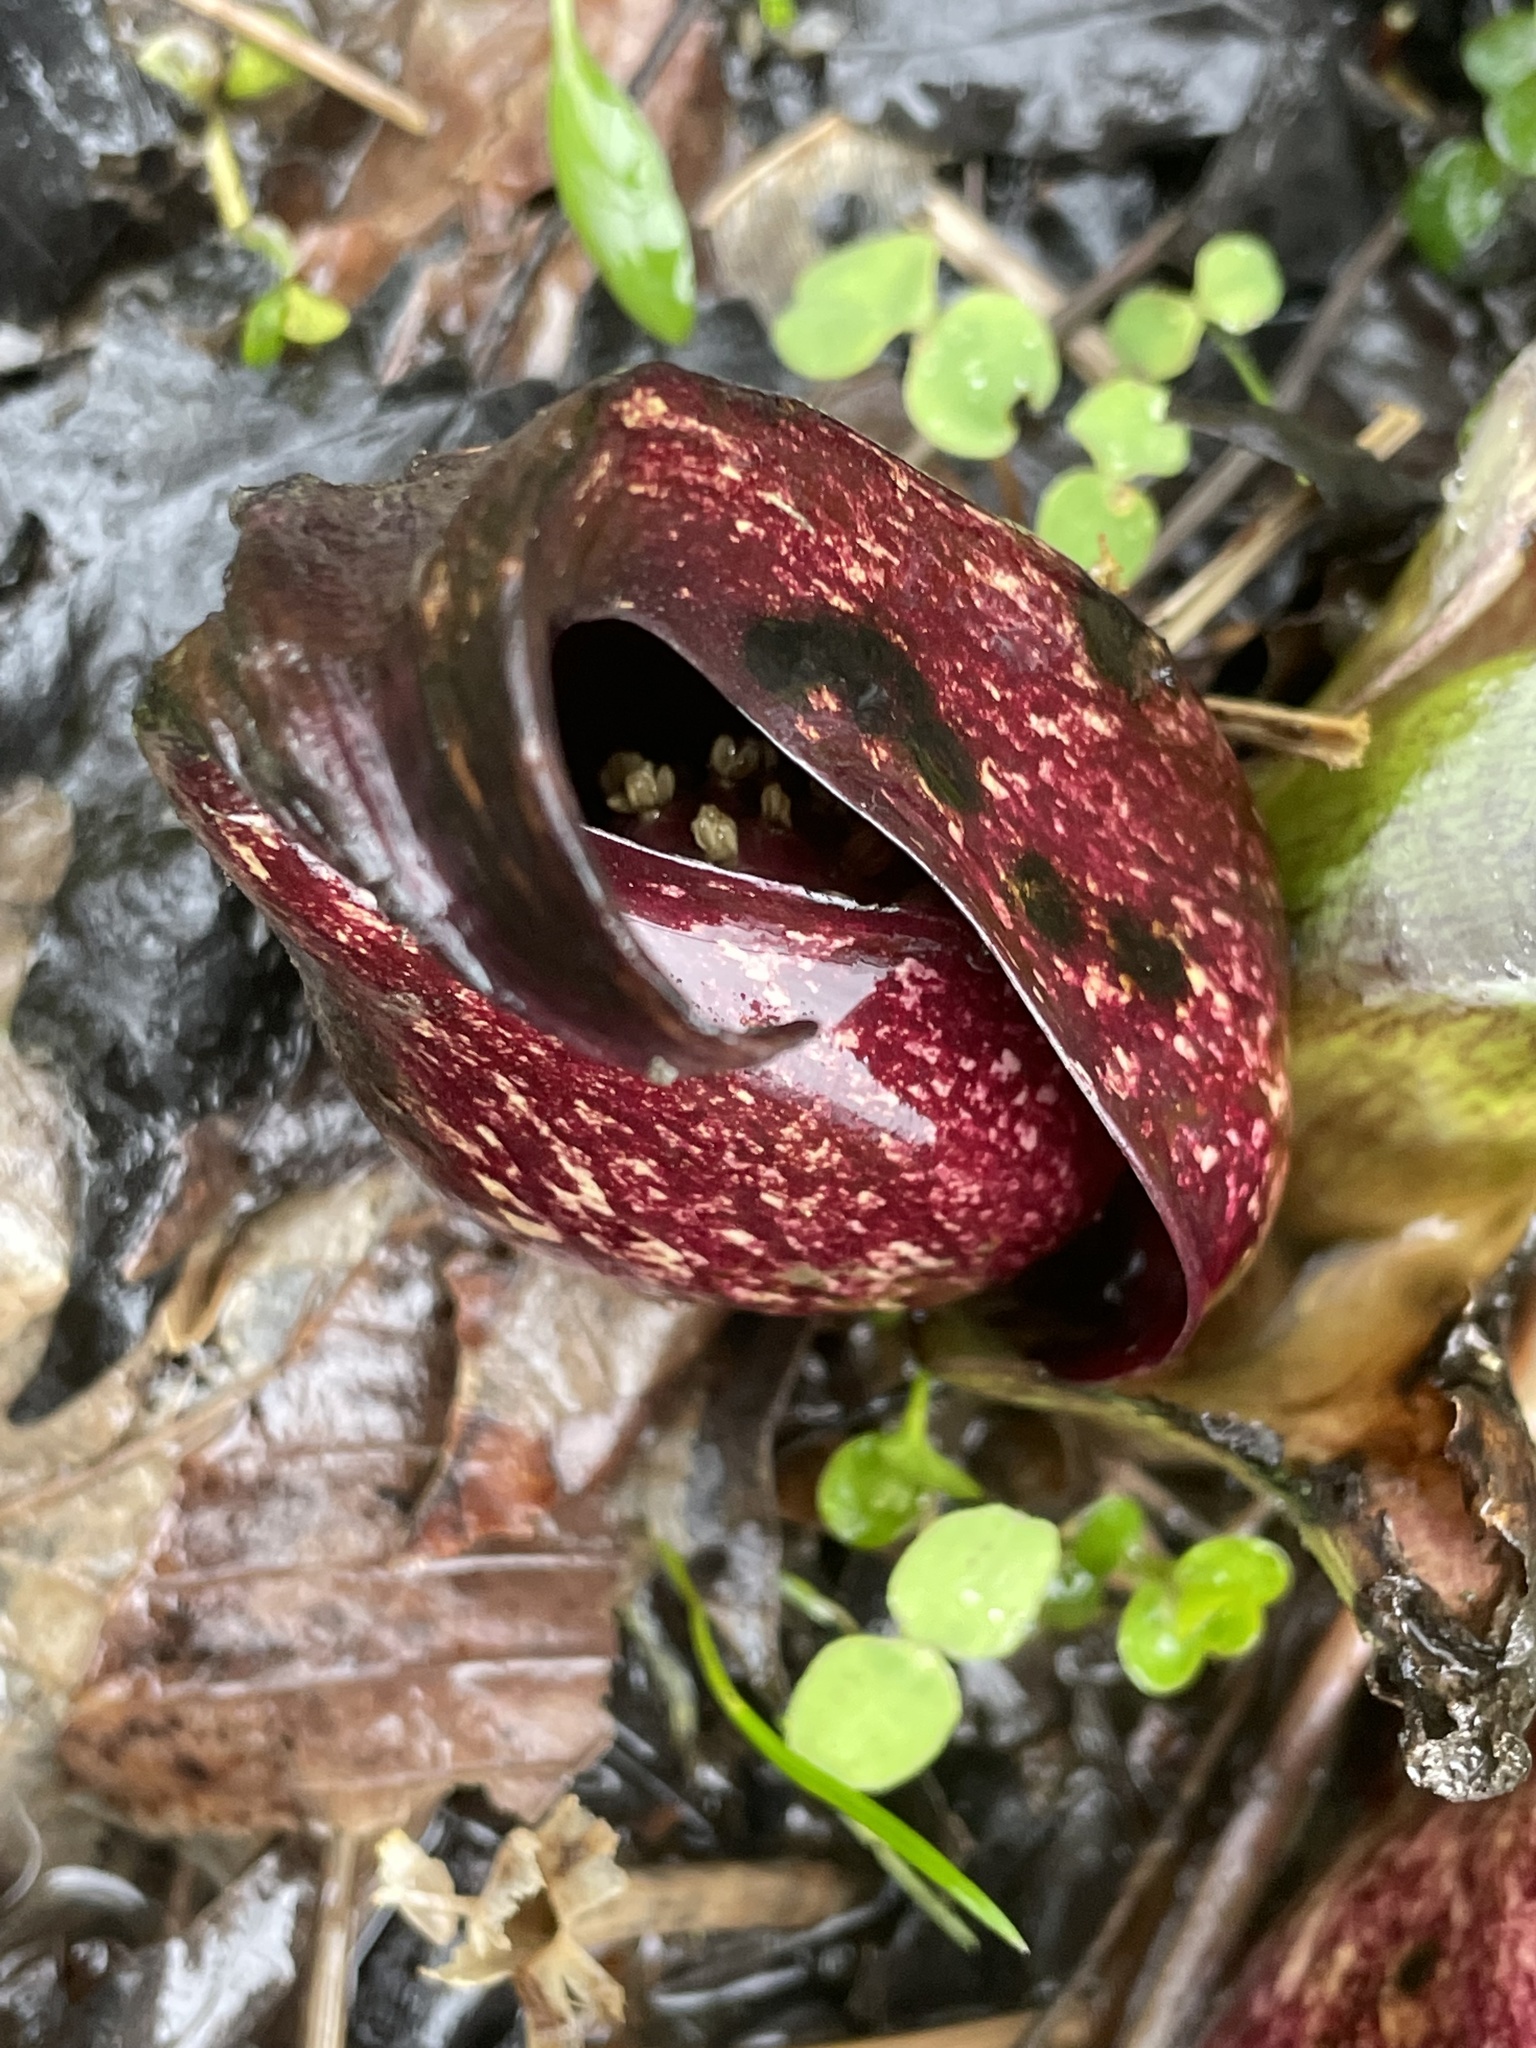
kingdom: Plantae
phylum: Tracheophyta
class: Liliopsida
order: Alismatales
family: Araceae
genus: Symplocarpus
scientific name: Symplocarpus foetidus
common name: Eastern skunk cabbage
